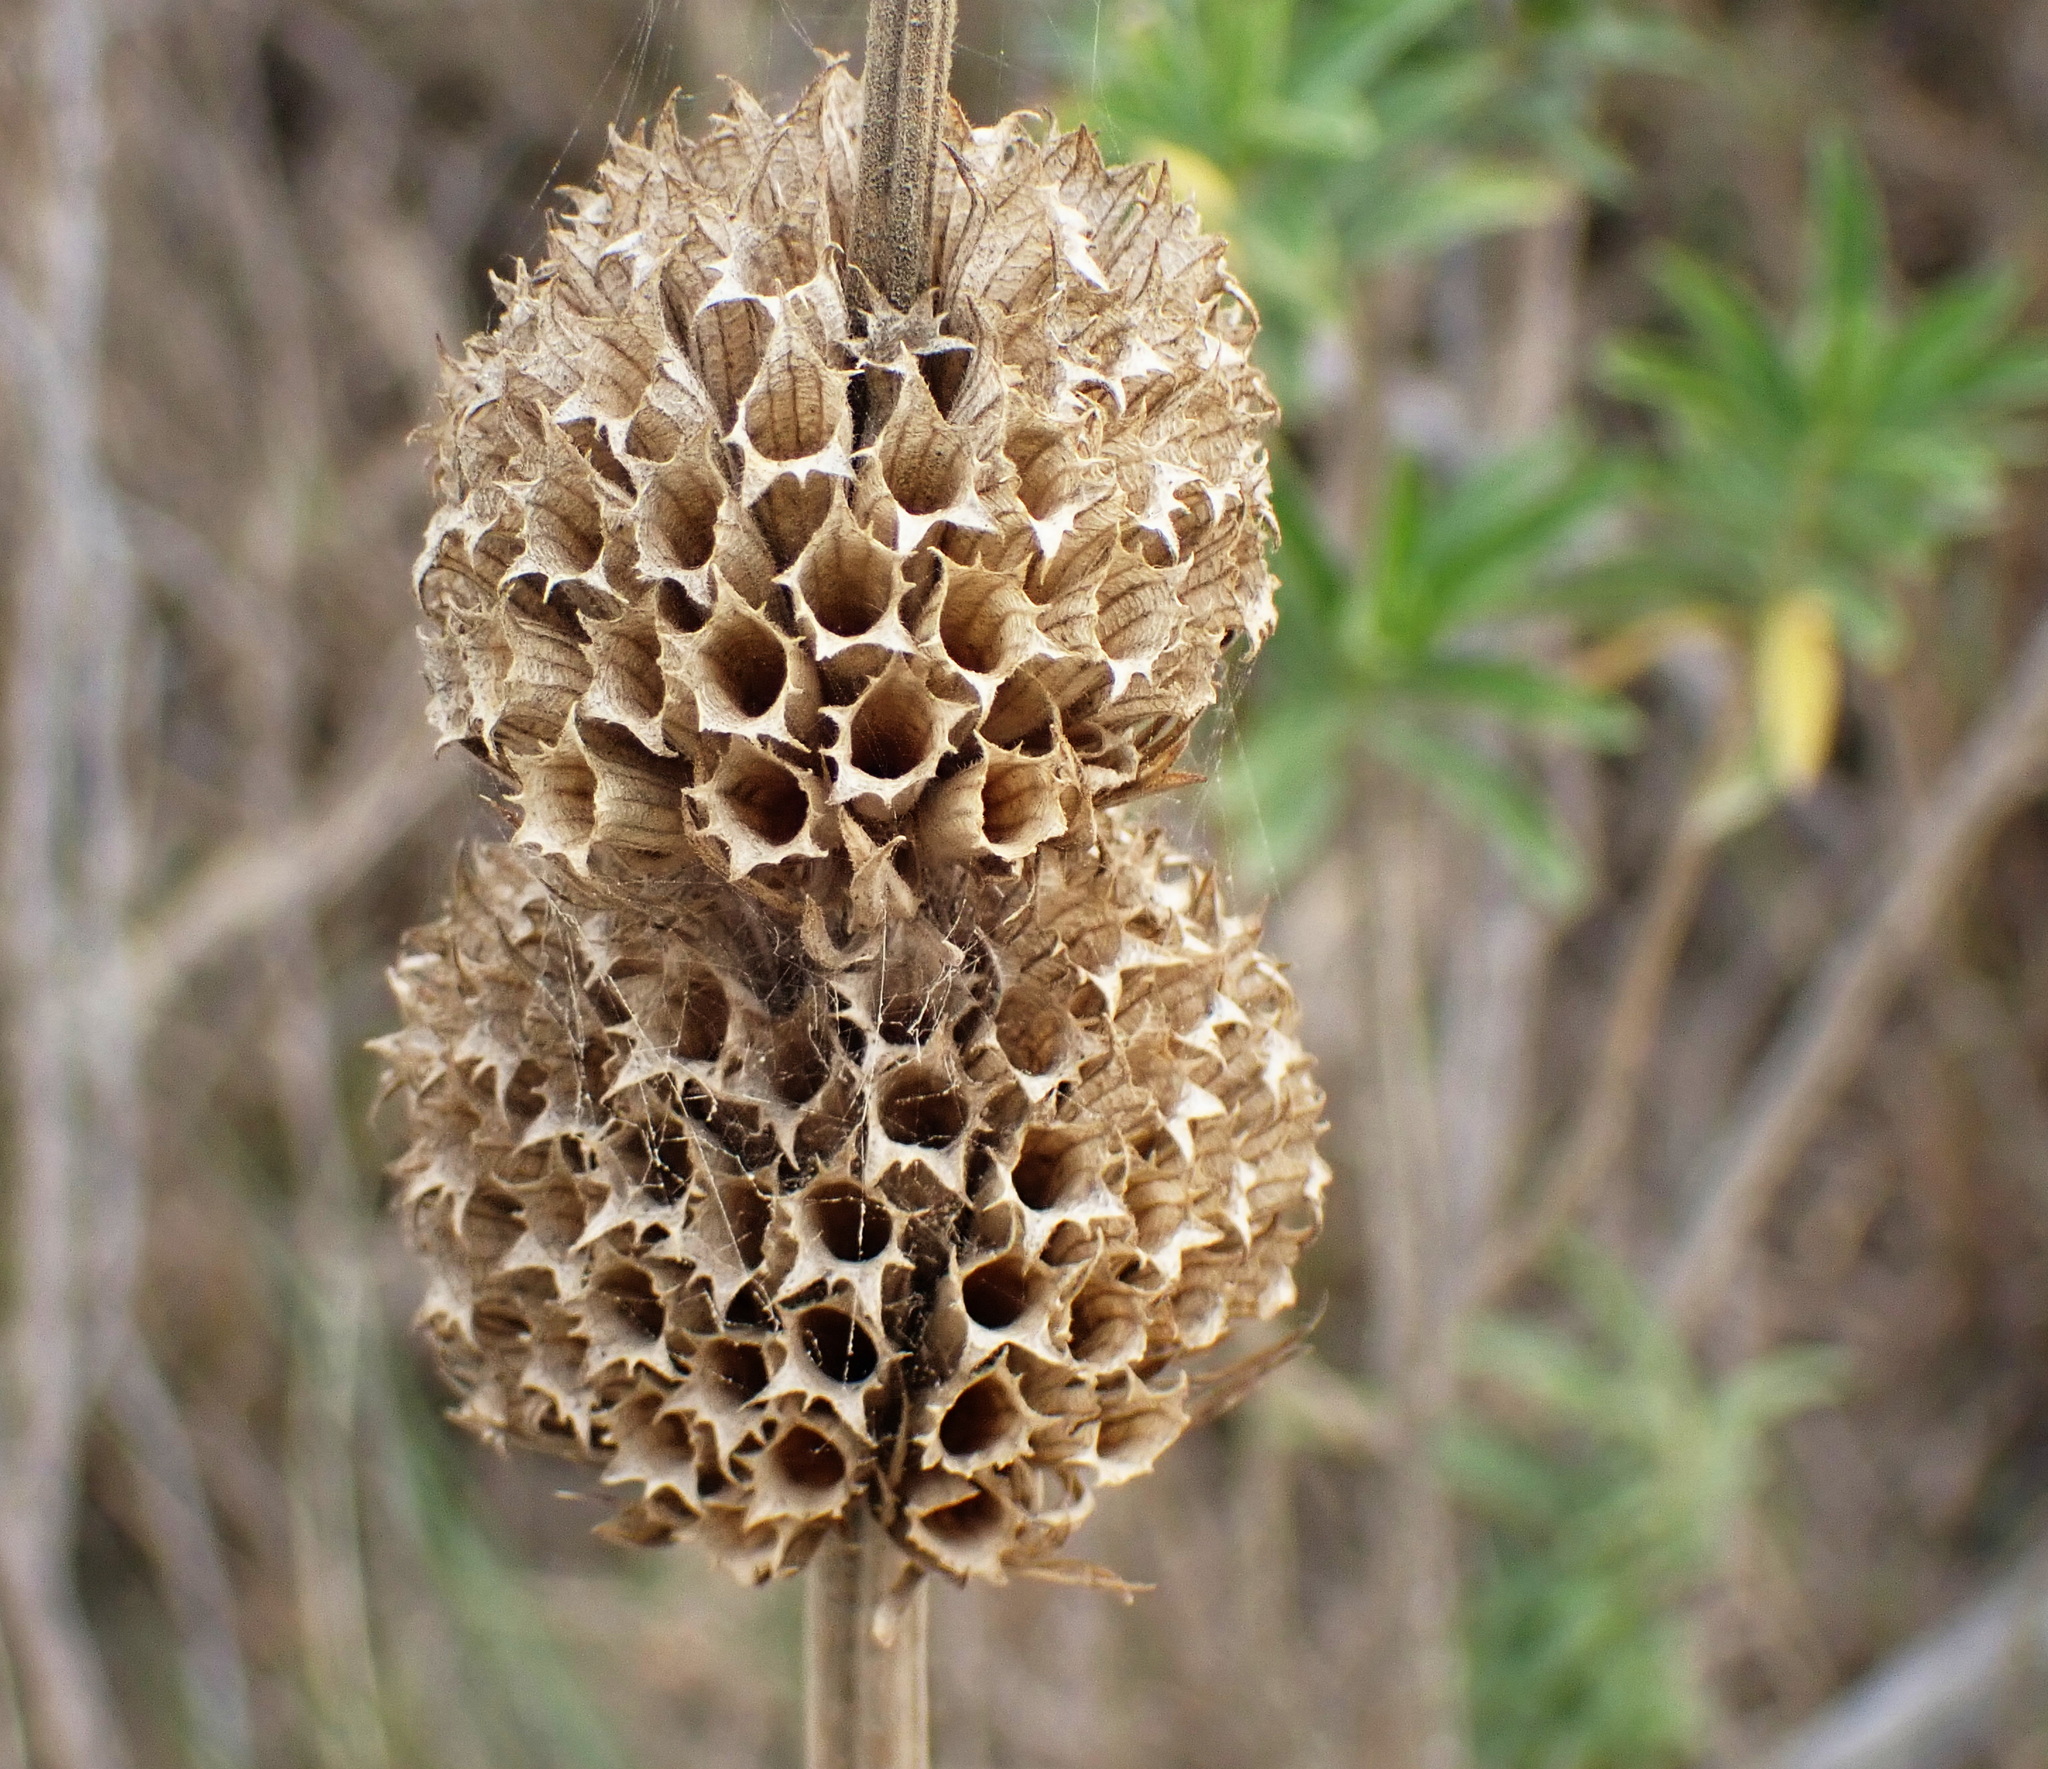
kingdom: Plantae
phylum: Tracheophyta
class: Magnoliopsida
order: Lamiales
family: Lamiaceae
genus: Leonotis
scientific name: Leonotis leonurus
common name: Lion's ear
